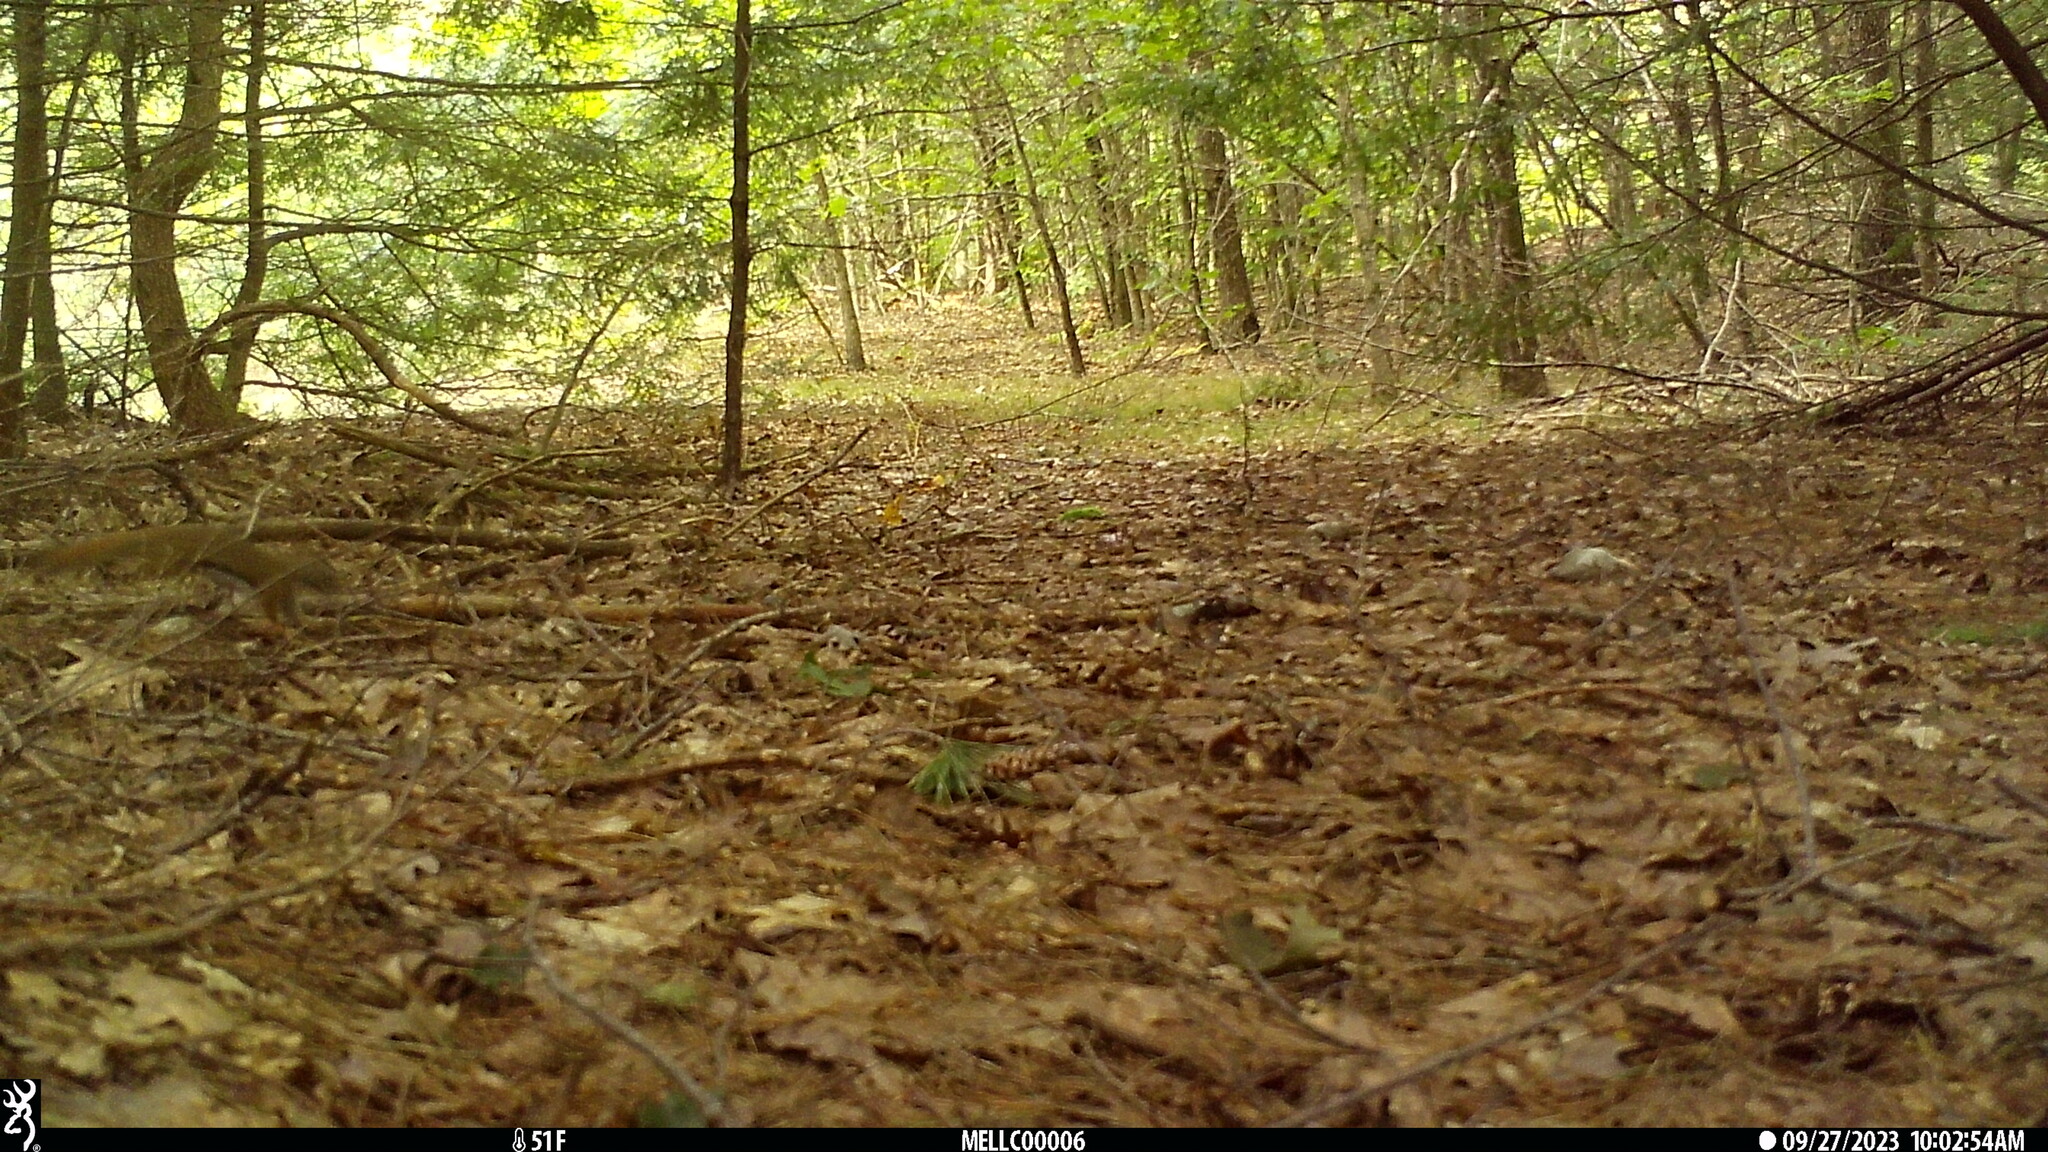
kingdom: Animalia
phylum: Chordata
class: Mammalia
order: Rodentia
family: Sciuridae
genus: Tamiasciurus
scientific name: Tamiasciurus hudsonicus
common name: Red squirrel
